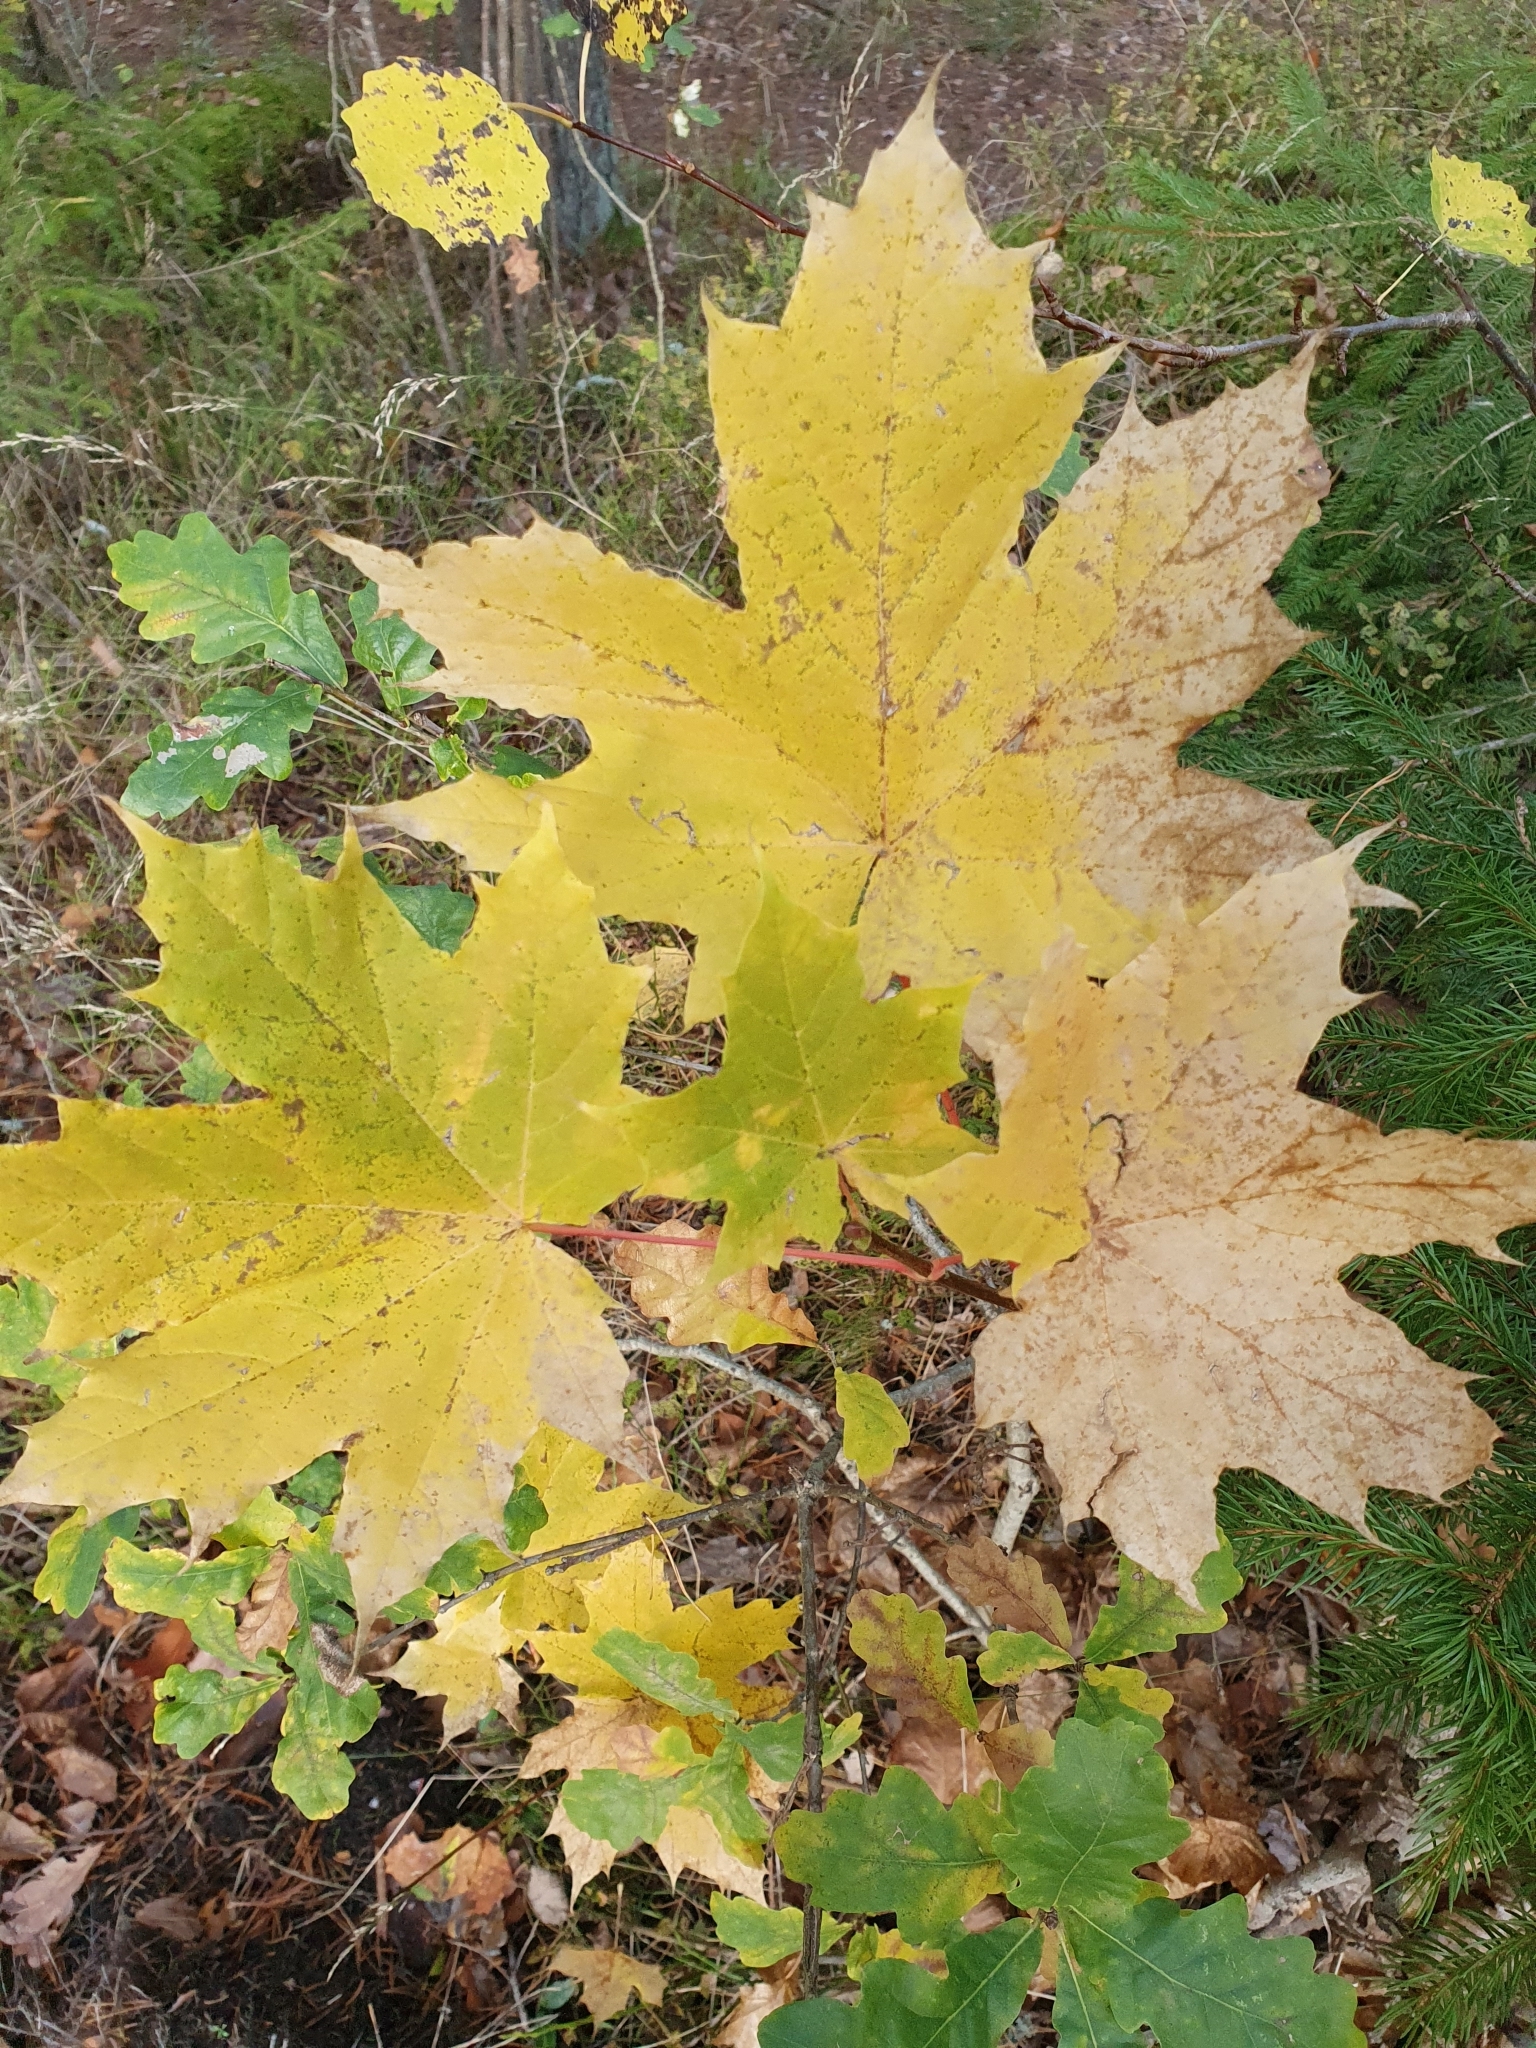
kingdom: Plantae
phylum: Tracheophyta
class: Magnoliopsida
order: Sapindales
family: Sapindaceae
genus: Acer
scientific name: Acer platanoides
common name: Norway maple
